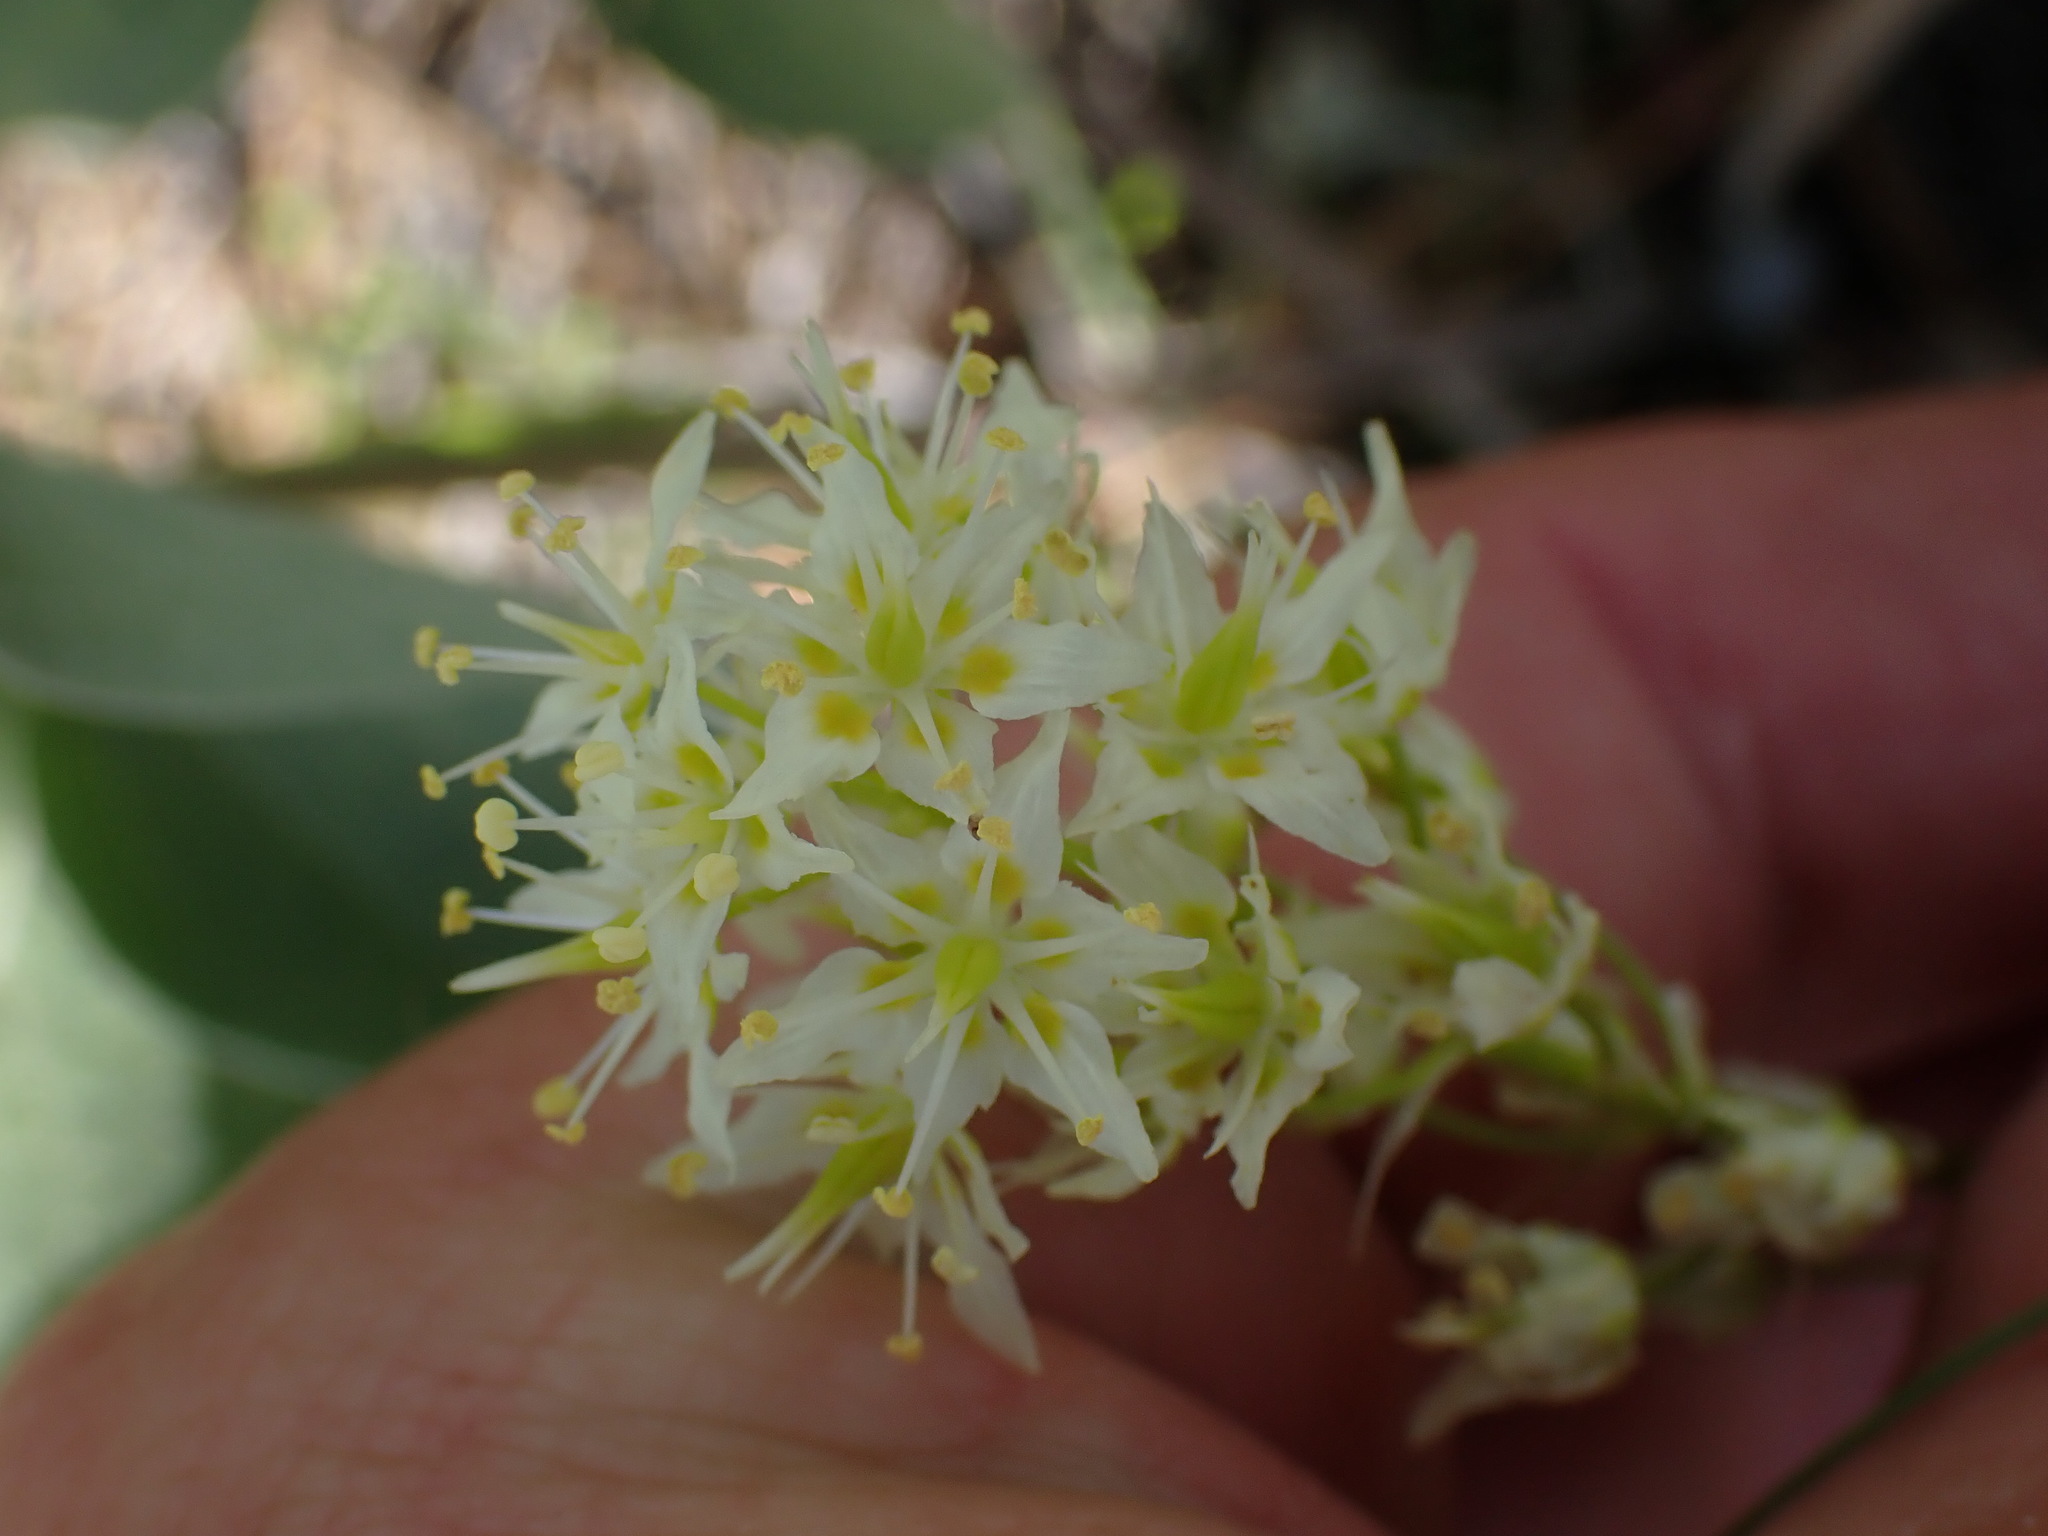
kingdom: Plantae
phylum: Tracheophyta
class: Liliopsida
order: Liliales
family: Melanthiaceae
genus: Toxicoscordion
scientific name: Toxicoscordion venenosum
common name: Meadow death camas
